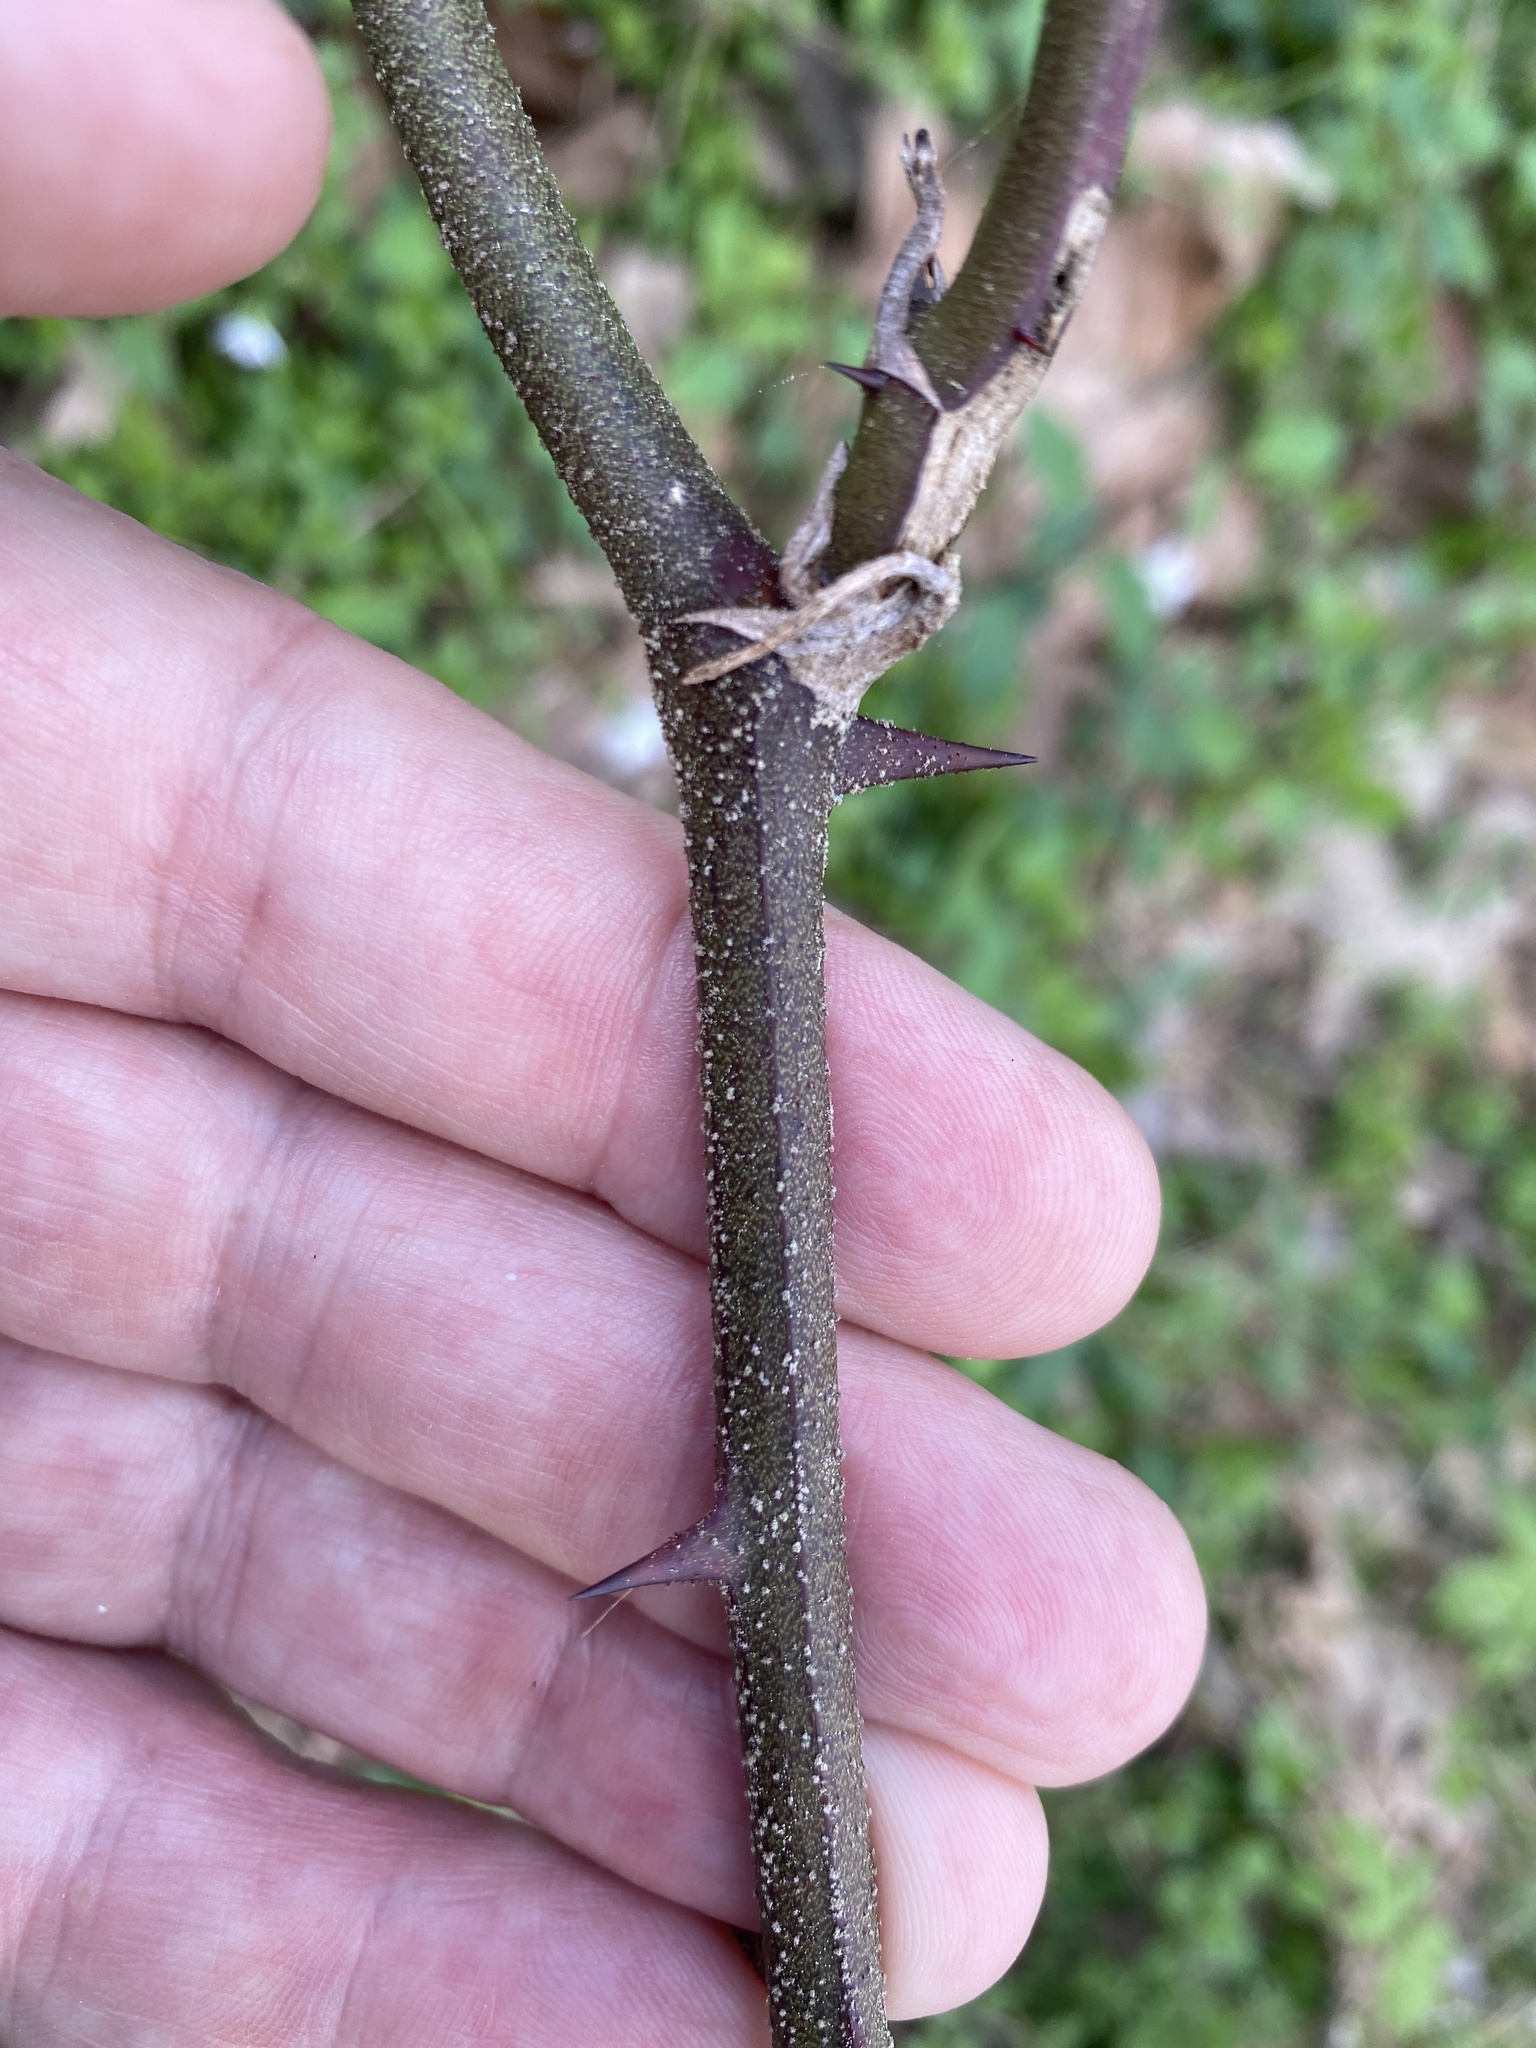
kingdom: Plantae
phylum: Tracheophyta
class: Liliopsida
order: Liliales
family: Smilacaceae
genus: Smilax
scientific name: Smilax bona-nox
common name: Catbrier
